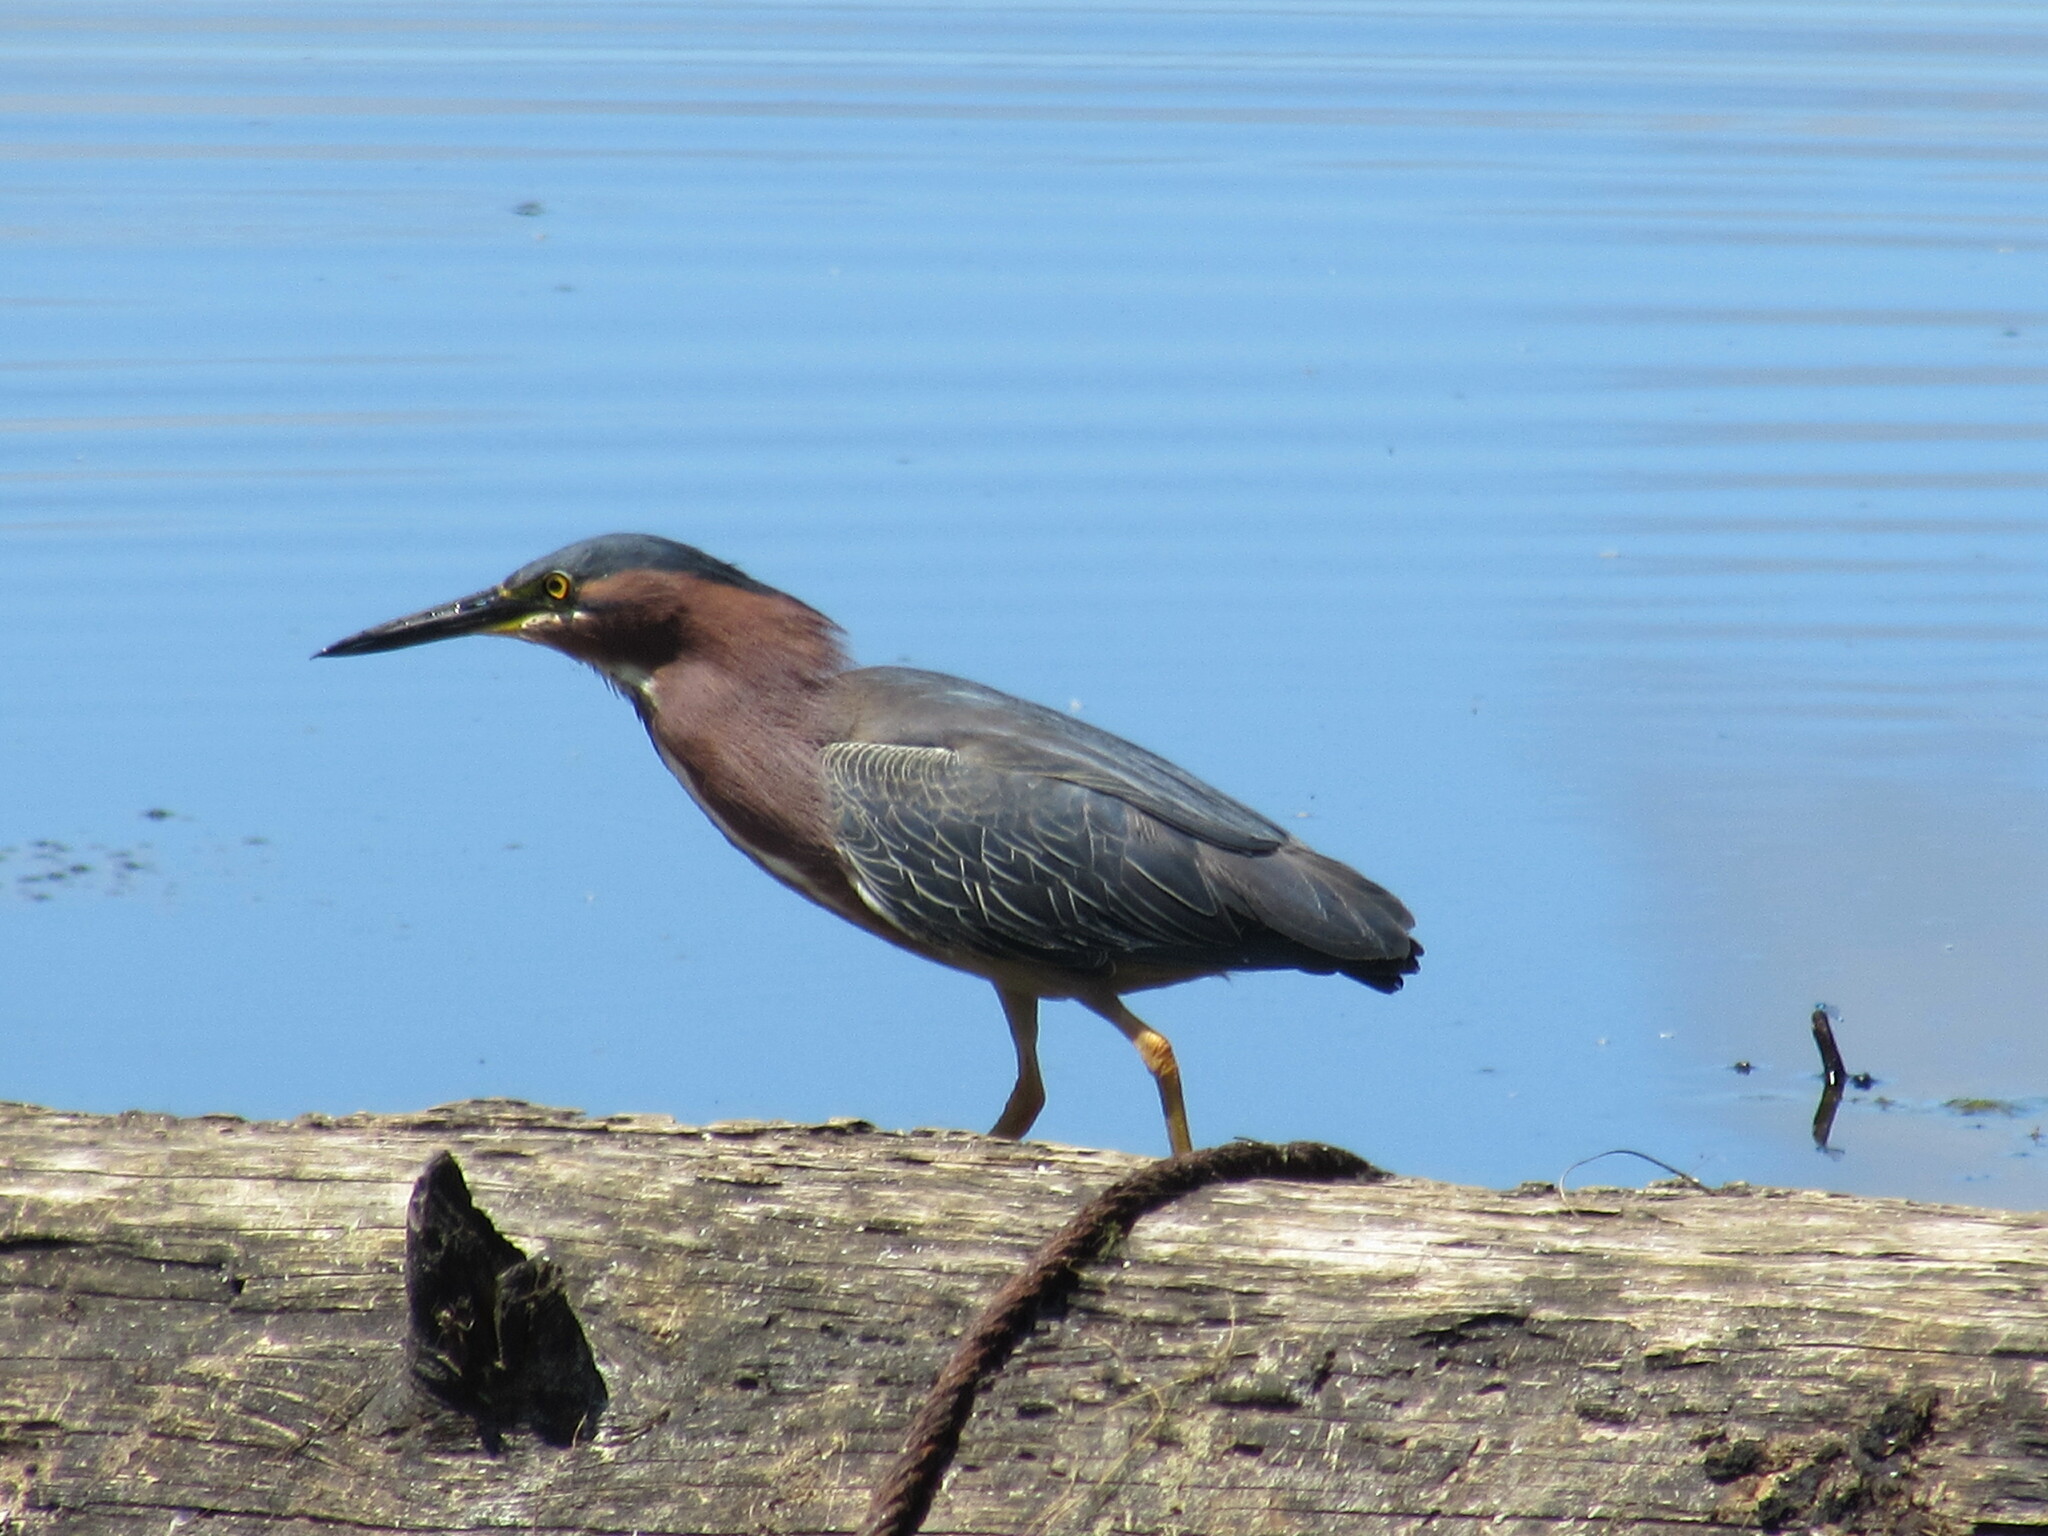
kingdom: Animalia
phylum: Chordata
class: Aves
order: Pelecaniformes
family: Ardeidae
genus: Butorides
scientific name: Butorides virescens
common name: Green heron
